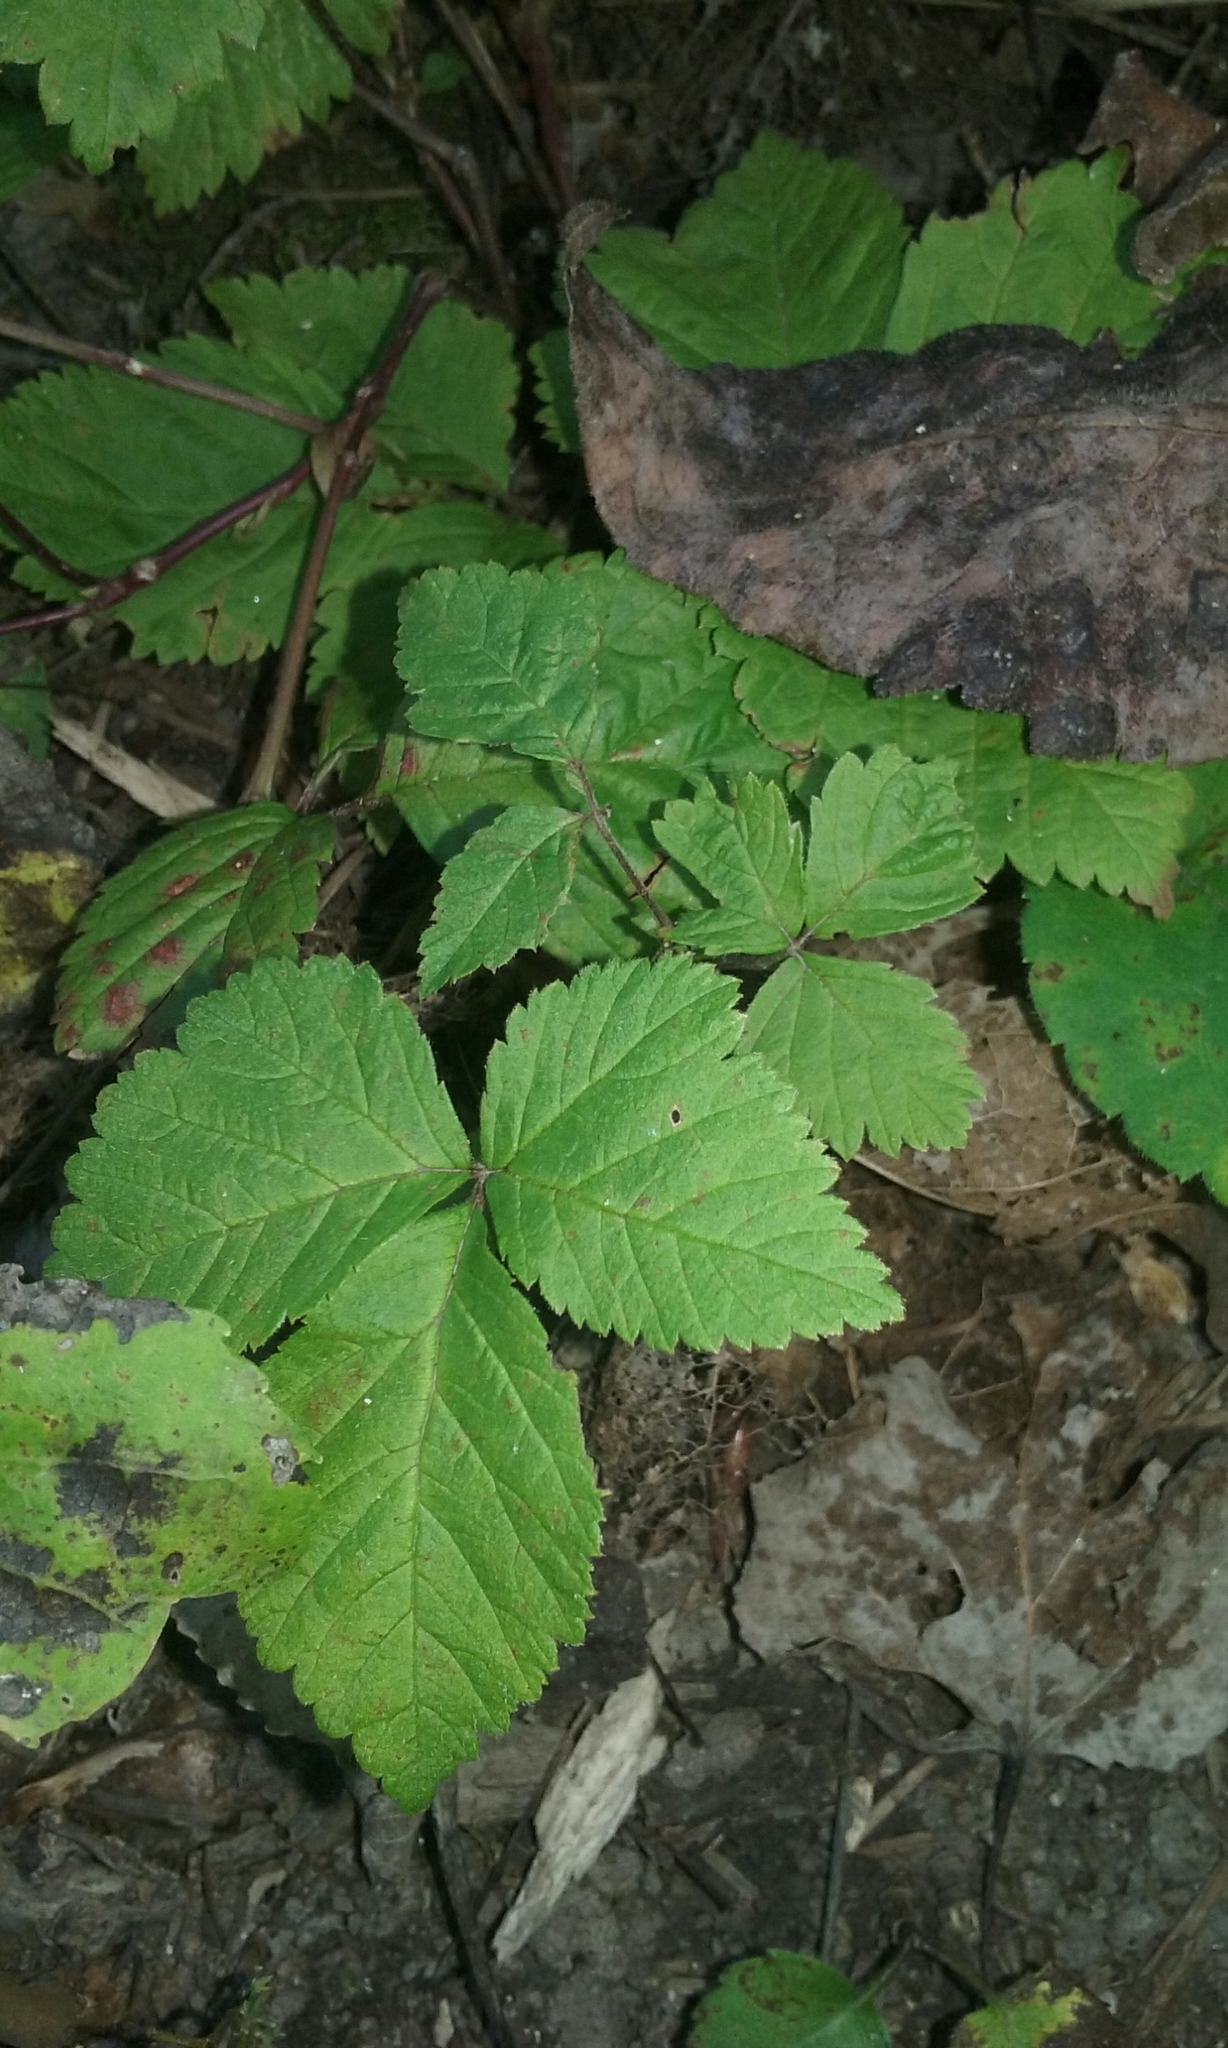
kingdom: Plantae
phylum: Tracheophyta
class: Magnoliopsida
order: Rosales
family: Rosaceae
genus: Rubus
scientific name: Rubus pubescens
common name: Dwarf raspberry
